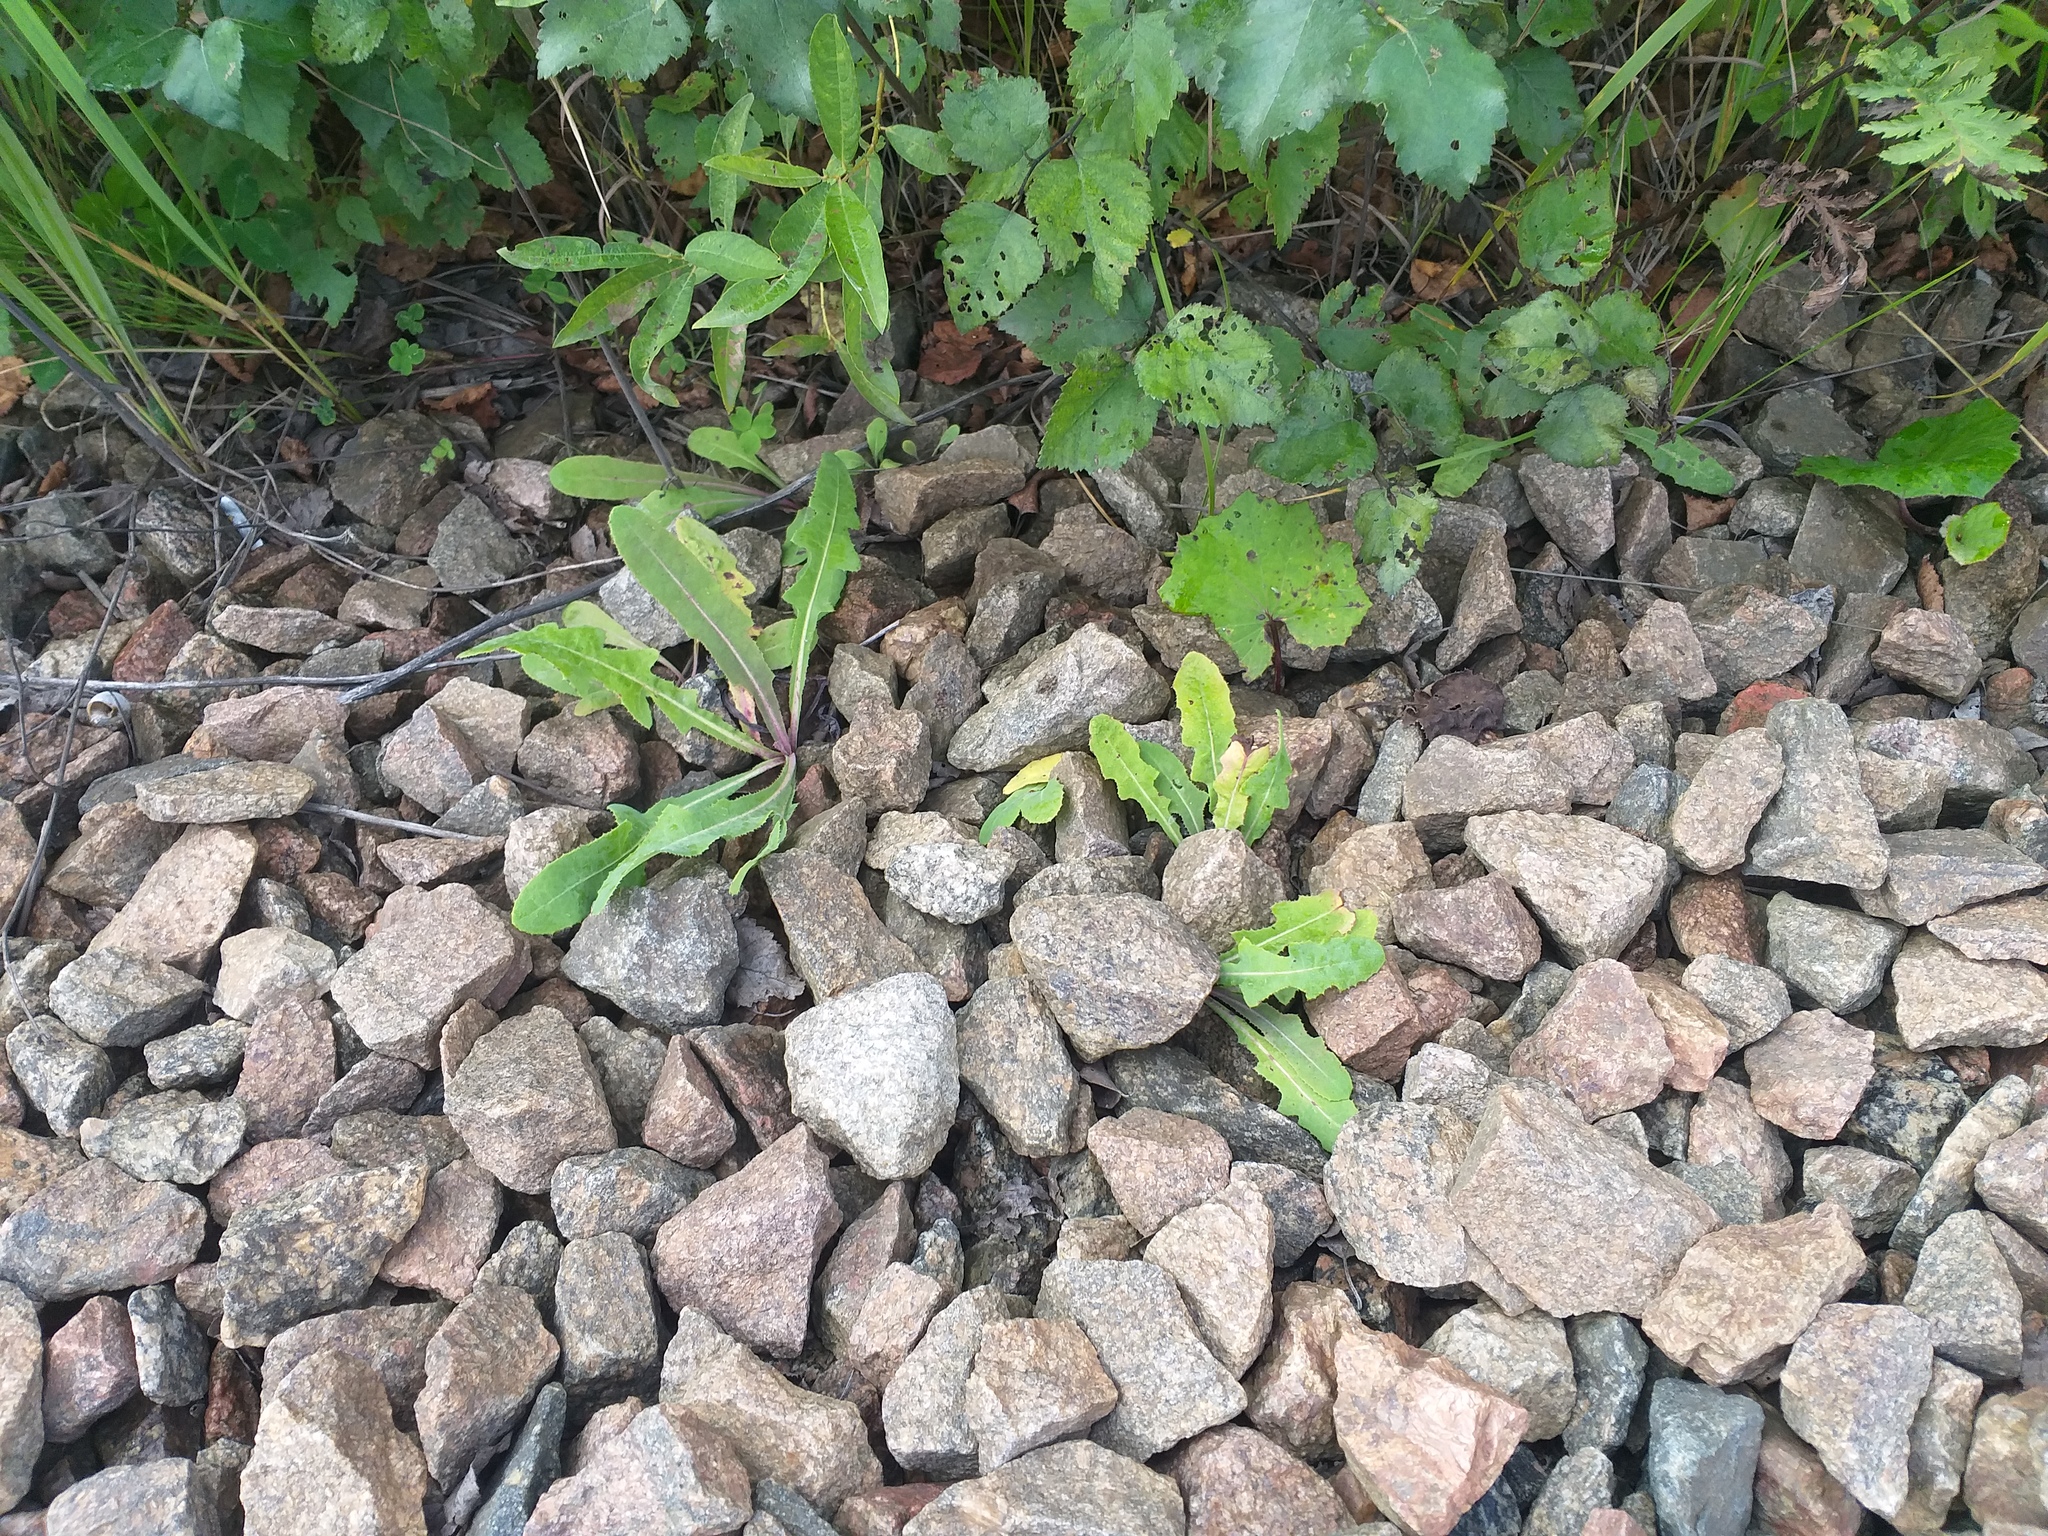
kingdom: Plantae
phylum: Tracheophyta
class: Magnoliopsida
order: Asterales
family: Asteraceae
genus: Sonchus
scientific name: Sonchus arvensis
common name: Perennial sow-thistle
